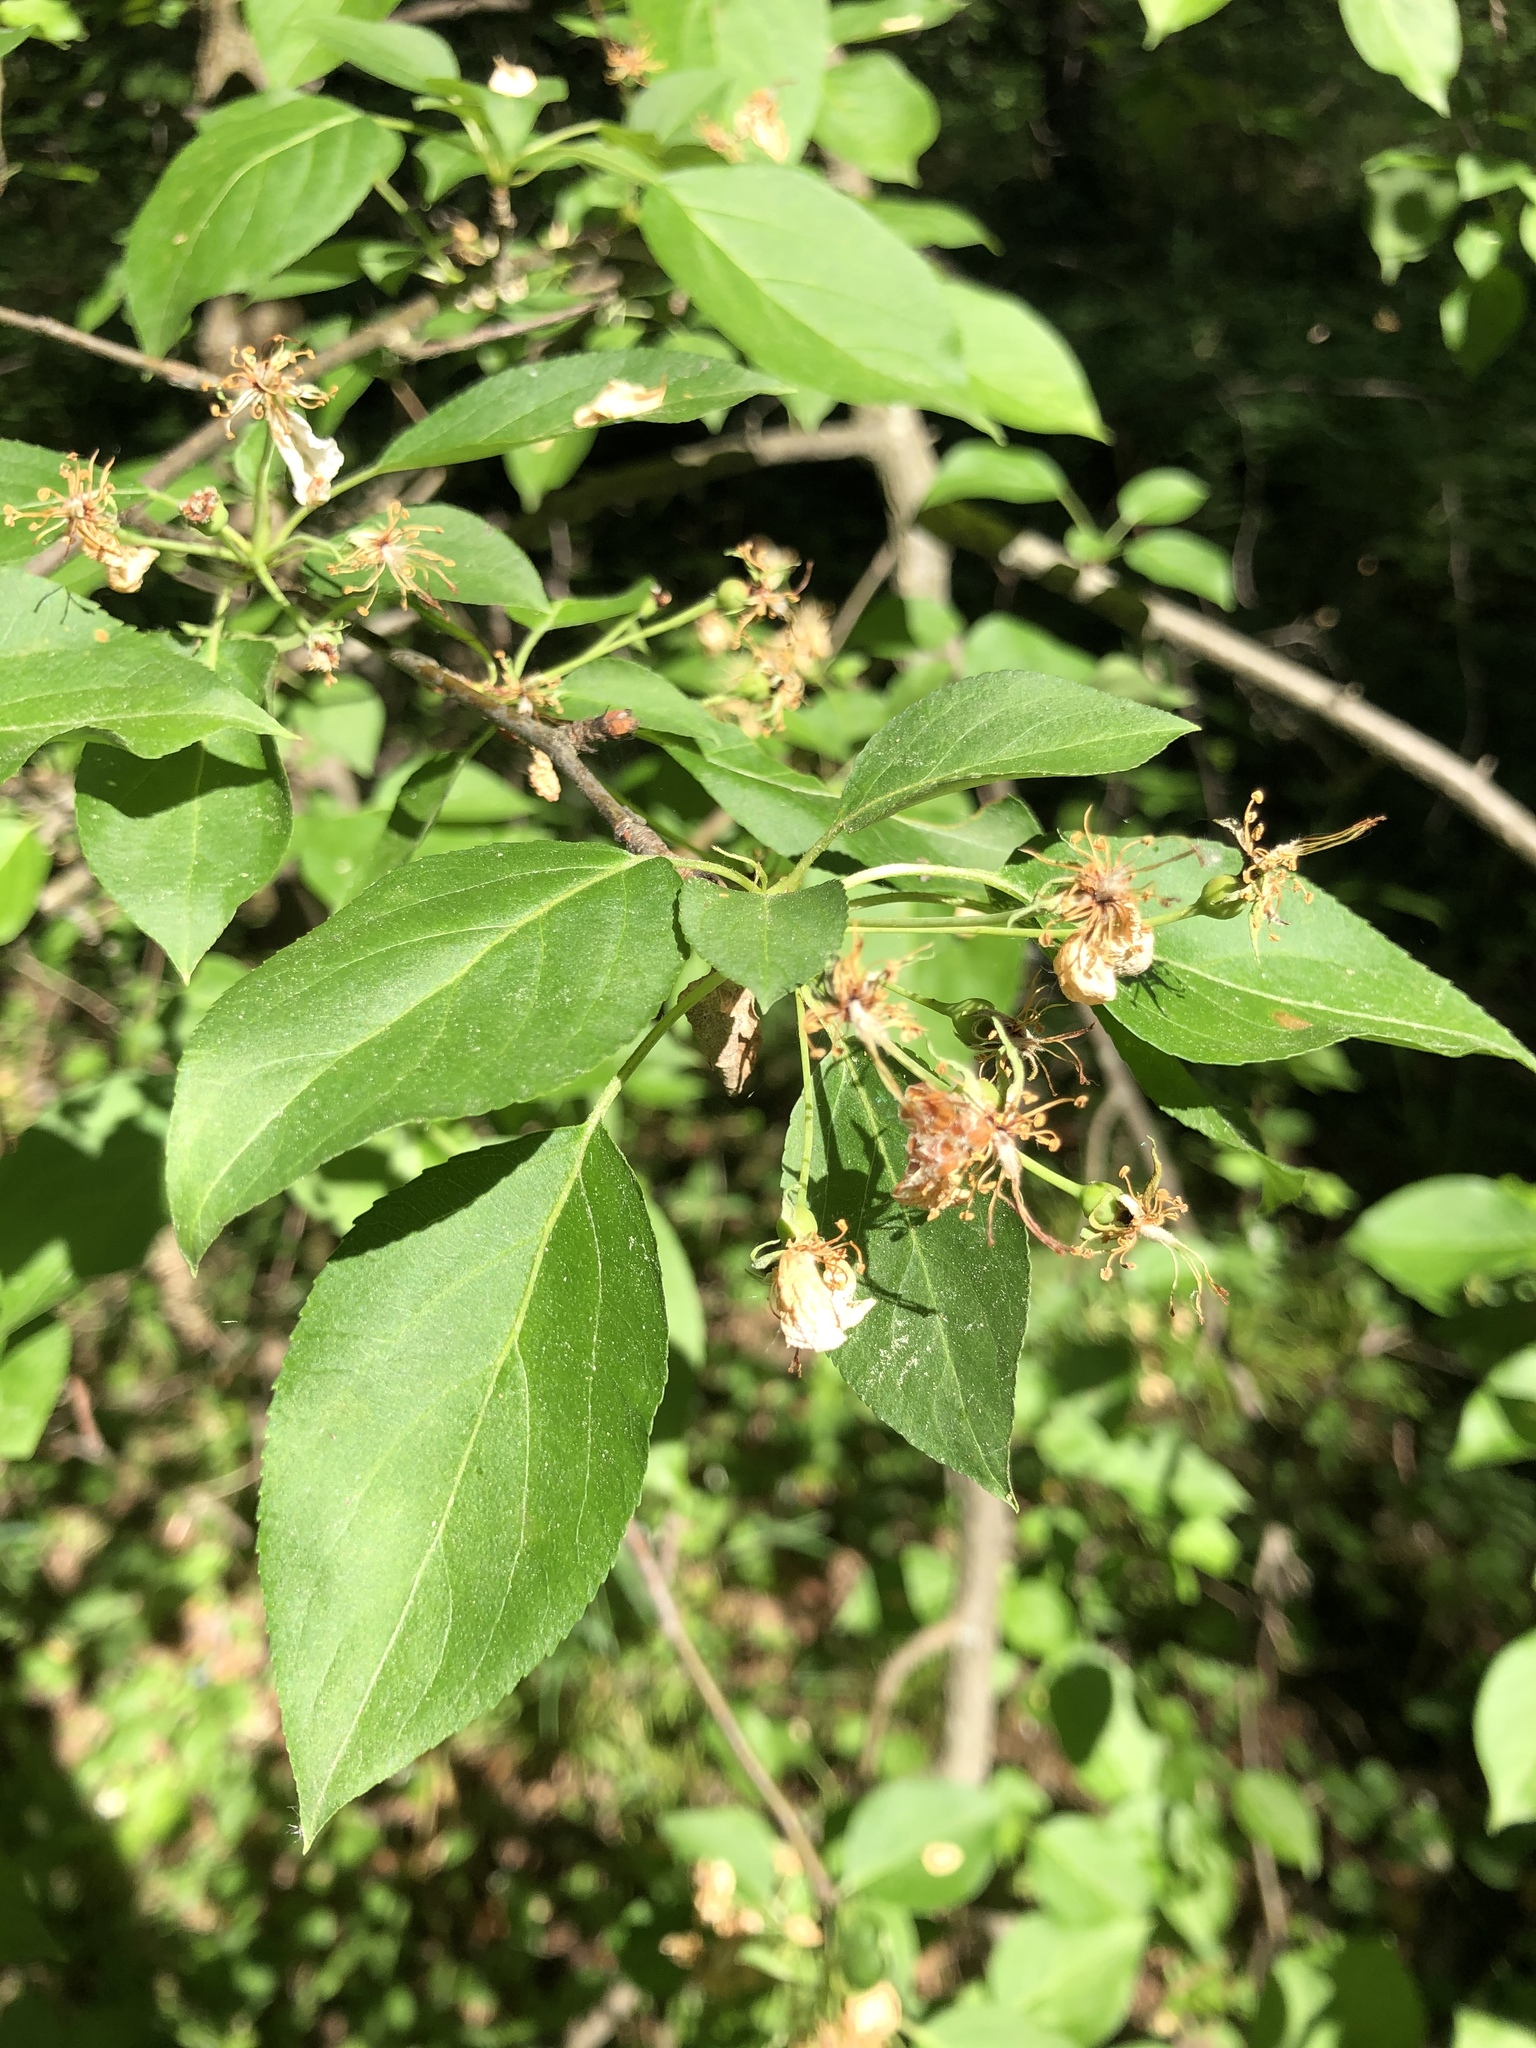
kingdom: Plantae
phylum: Tracheophyta
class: Magnoliopsida
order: Rosales
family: Rosaceae
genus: Malus
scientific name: Malus baccata
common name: Siberian crab
